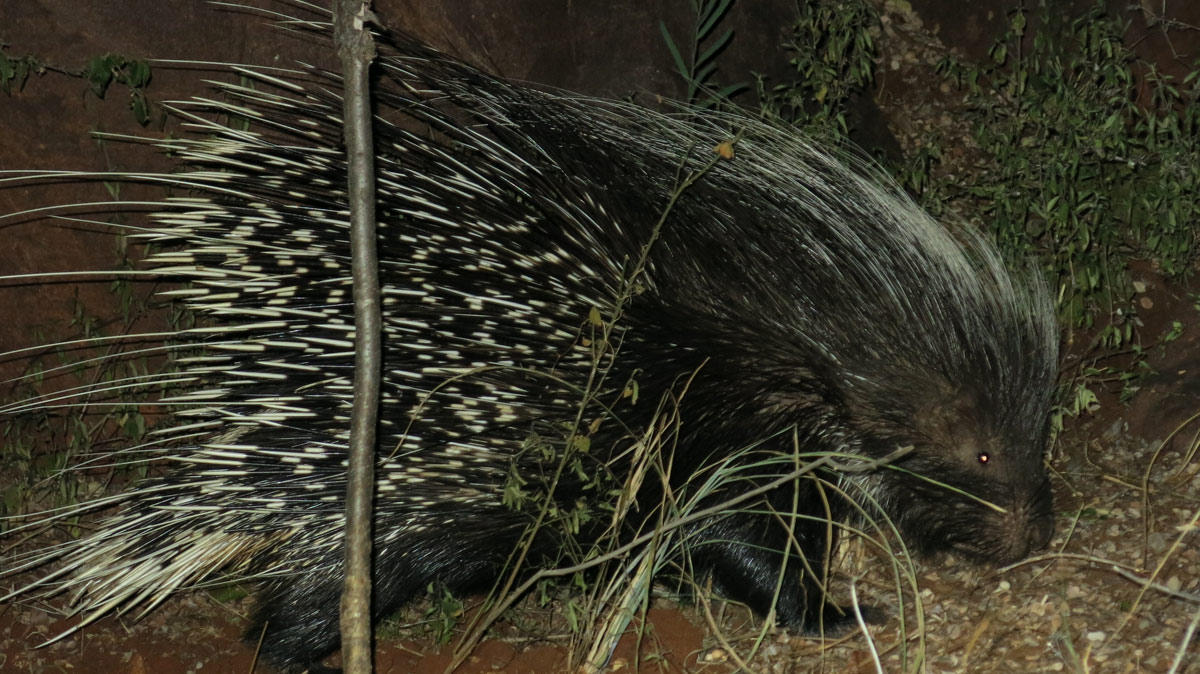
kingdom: Animalia
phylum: Chordata
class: Mammalia
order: Rodentia
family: Hystricidae
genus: Hystrix
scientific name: Hystrix africaeaustralis
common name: Cape porcupine
